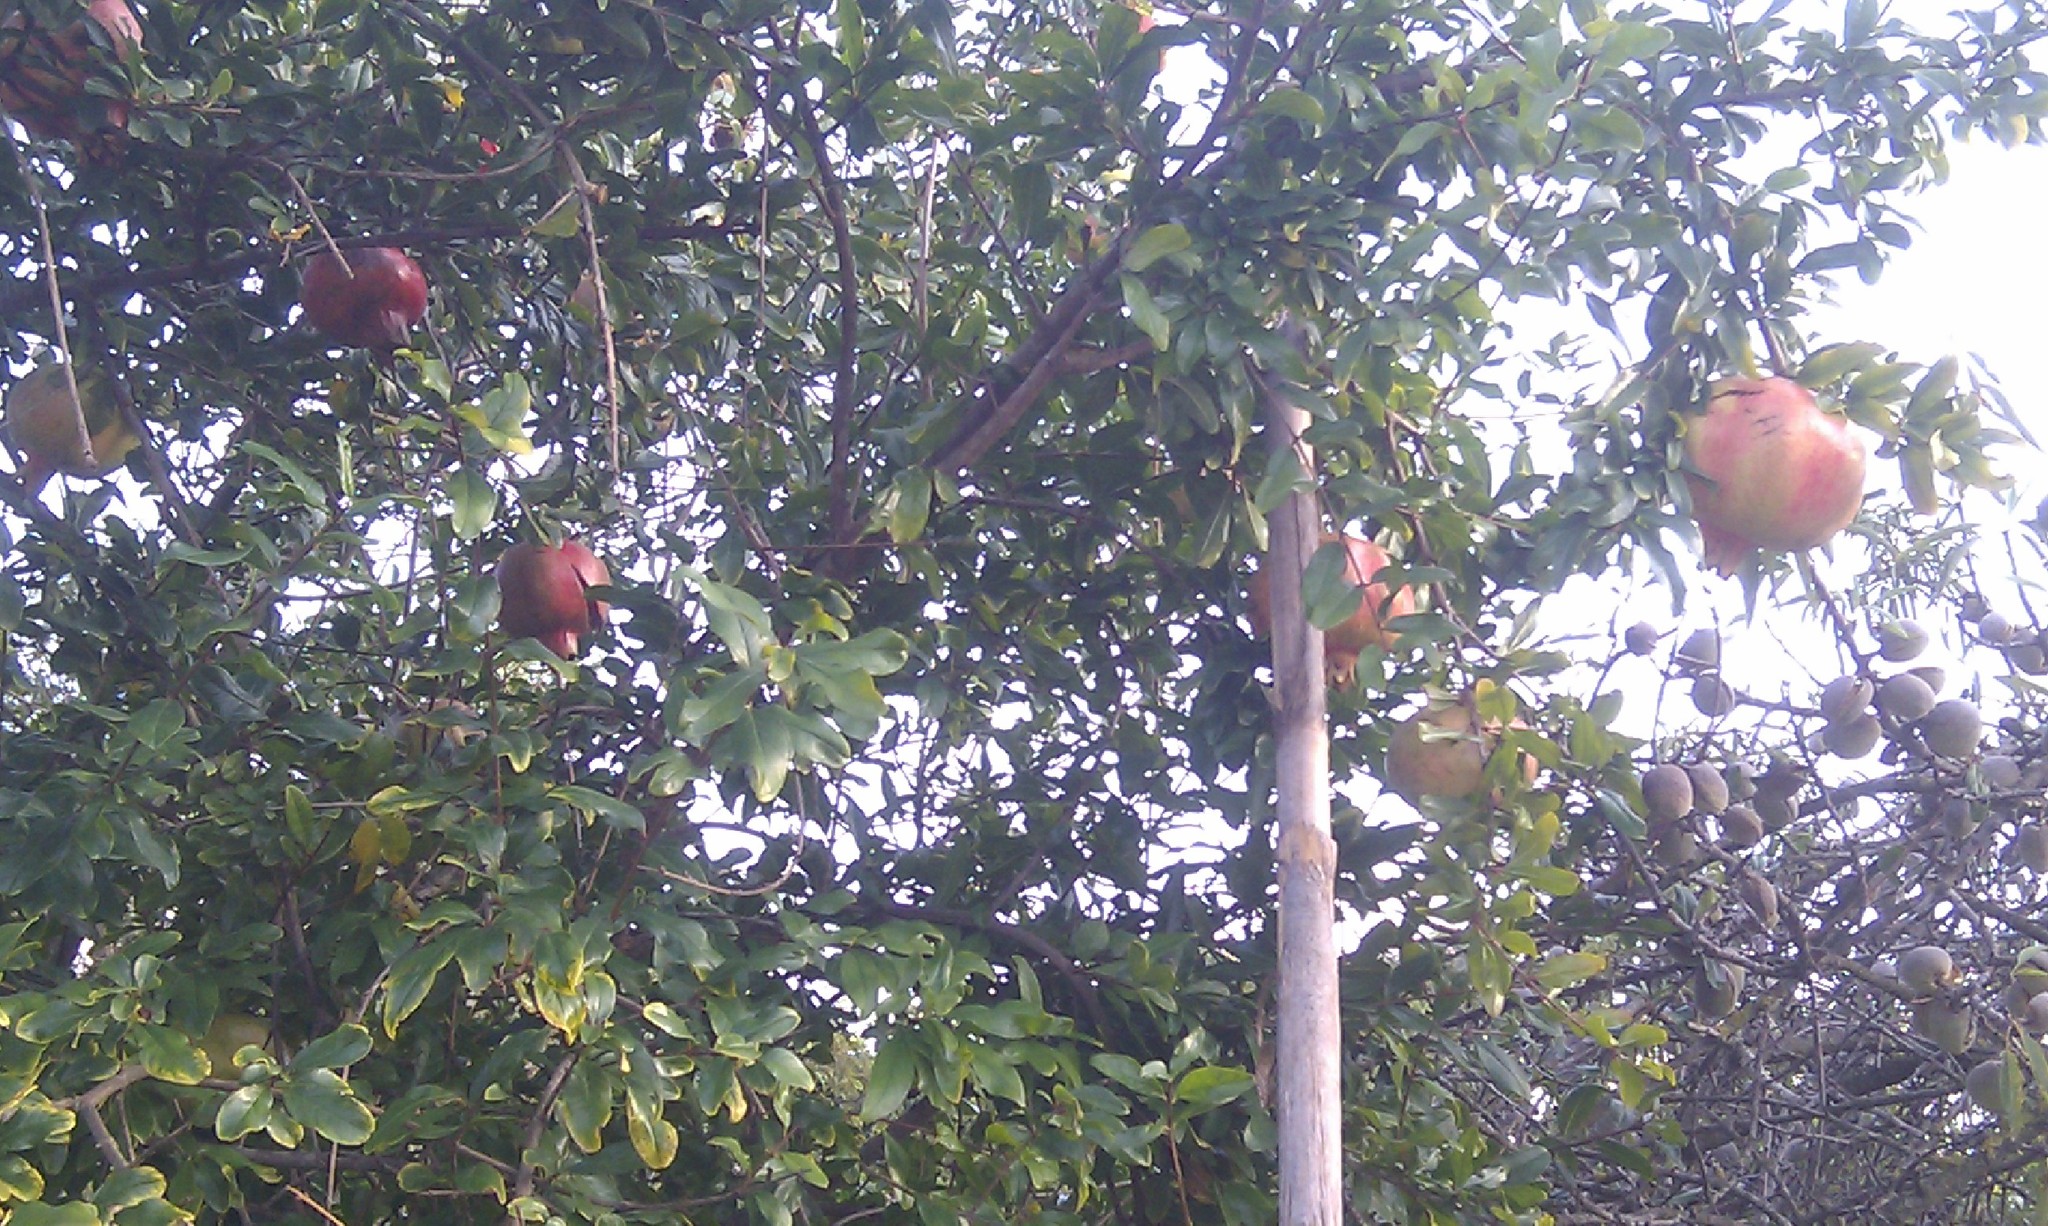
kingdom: Plantae
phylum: Tracheophyta
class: Magnoliopsida
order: Myrtales
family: Lythraceae
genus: Punica
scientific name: Punica granatum
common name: Pomegranate
